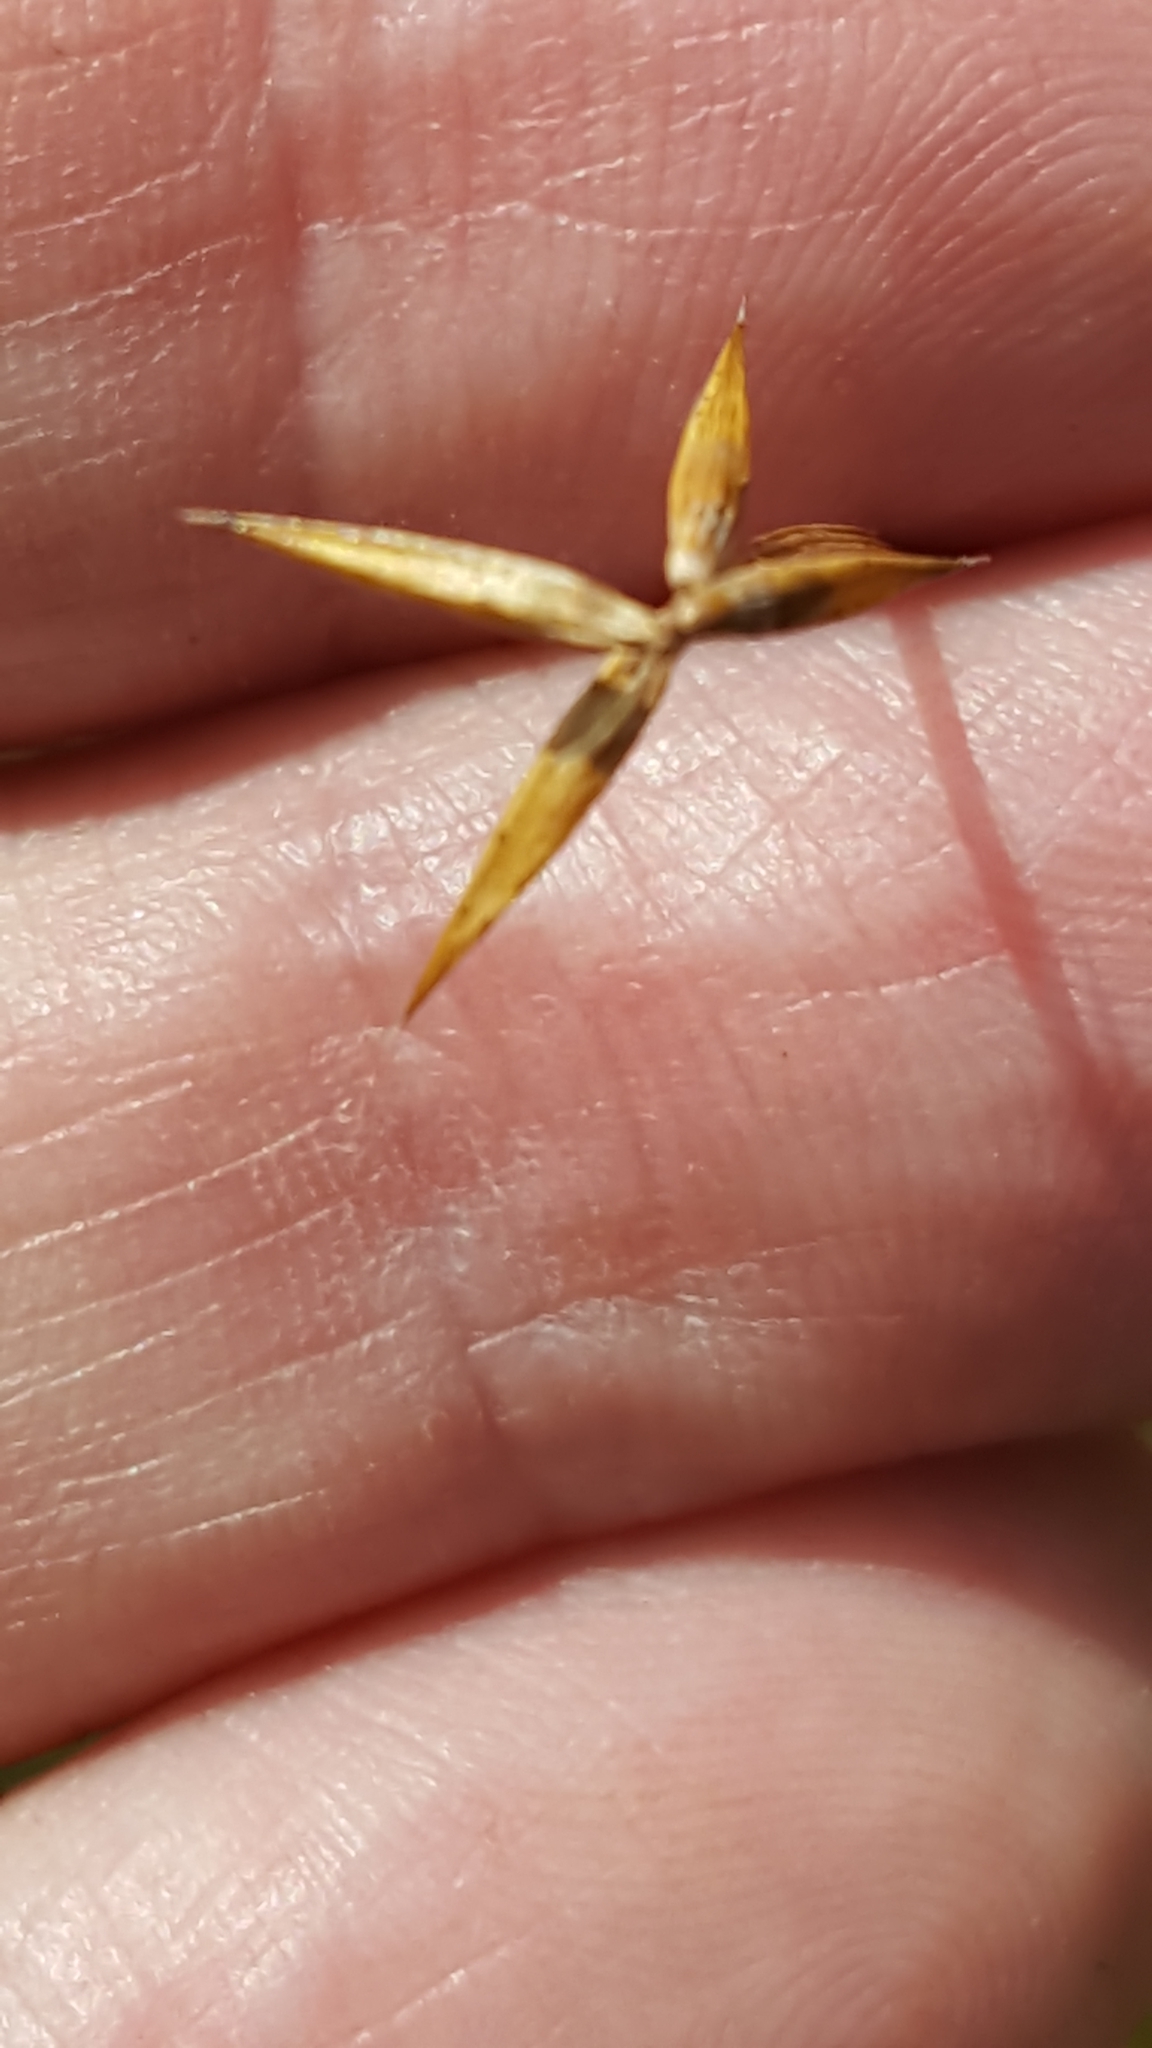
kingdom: Plantae
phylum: Tracheophyta
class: Liliopsida
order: Poales
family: Cyperaceae
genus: Carex
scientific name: Carex pauciflora
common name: Few-flowered sedge
